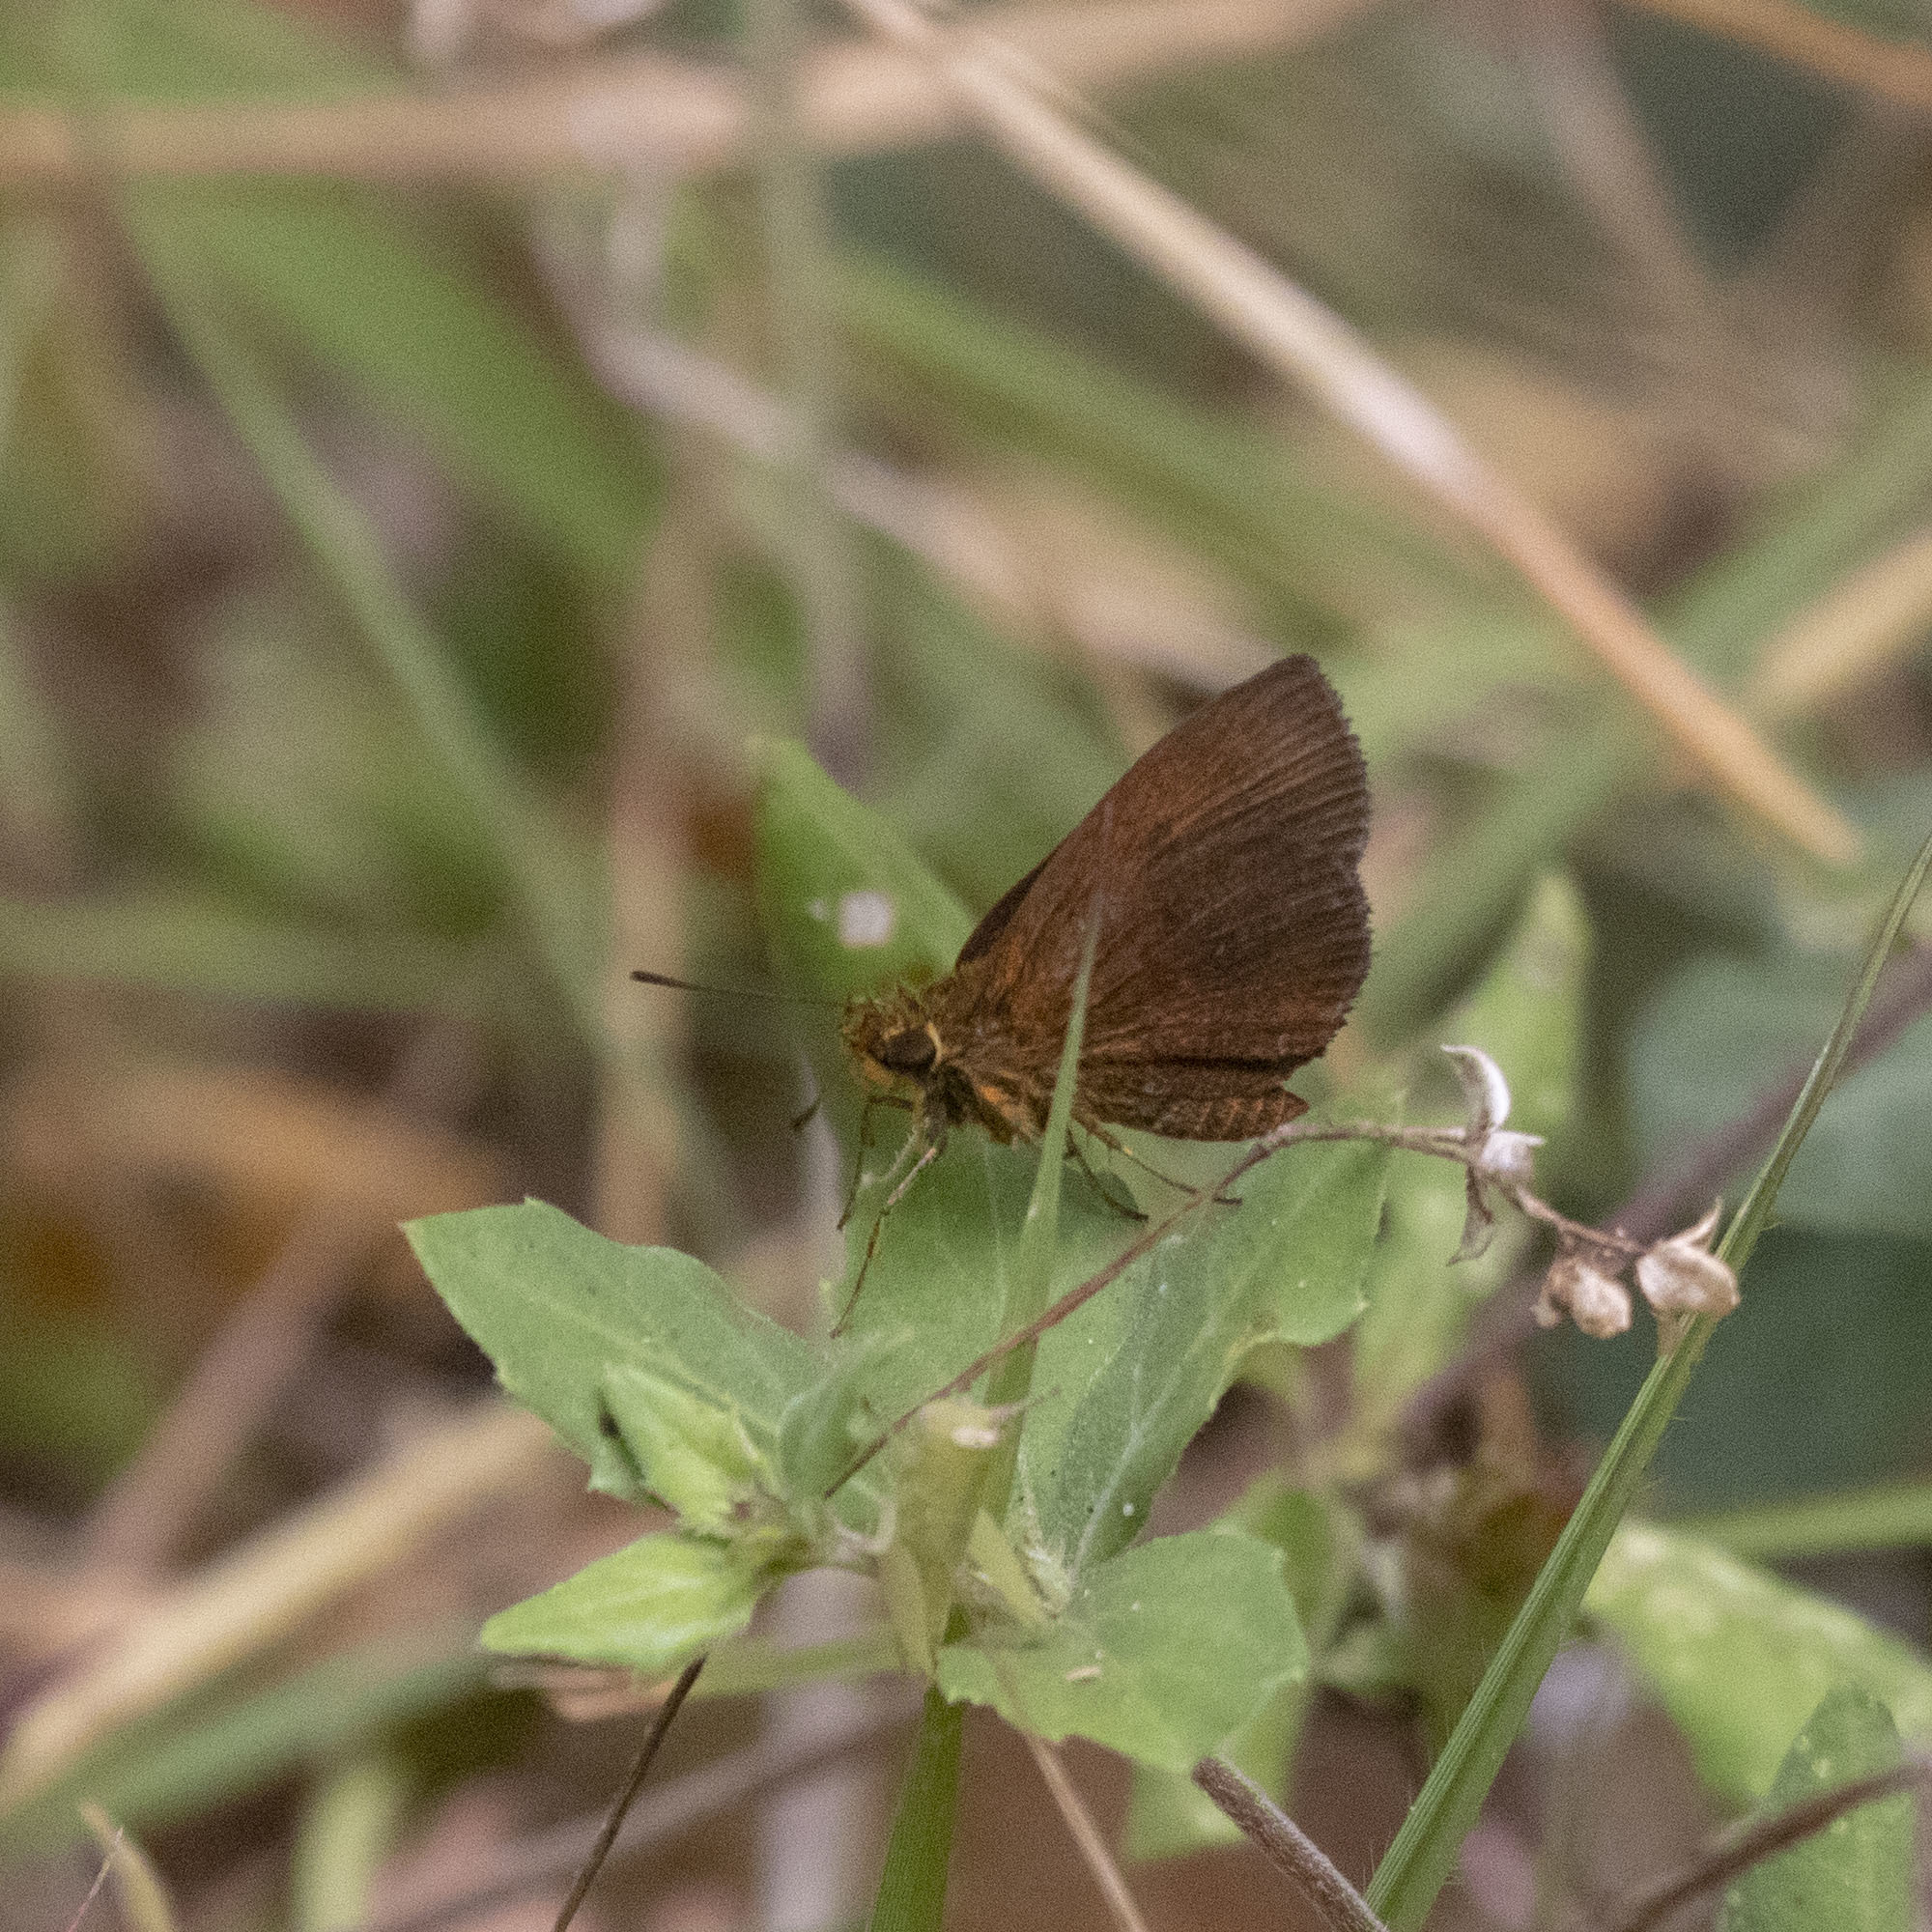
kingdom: Animalia
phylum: Arthropoda
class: Insecta
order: Lepidoptera
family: Hesperiidae
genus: Iambrix
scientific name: Iambrix salsala
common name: Chestnut bob
